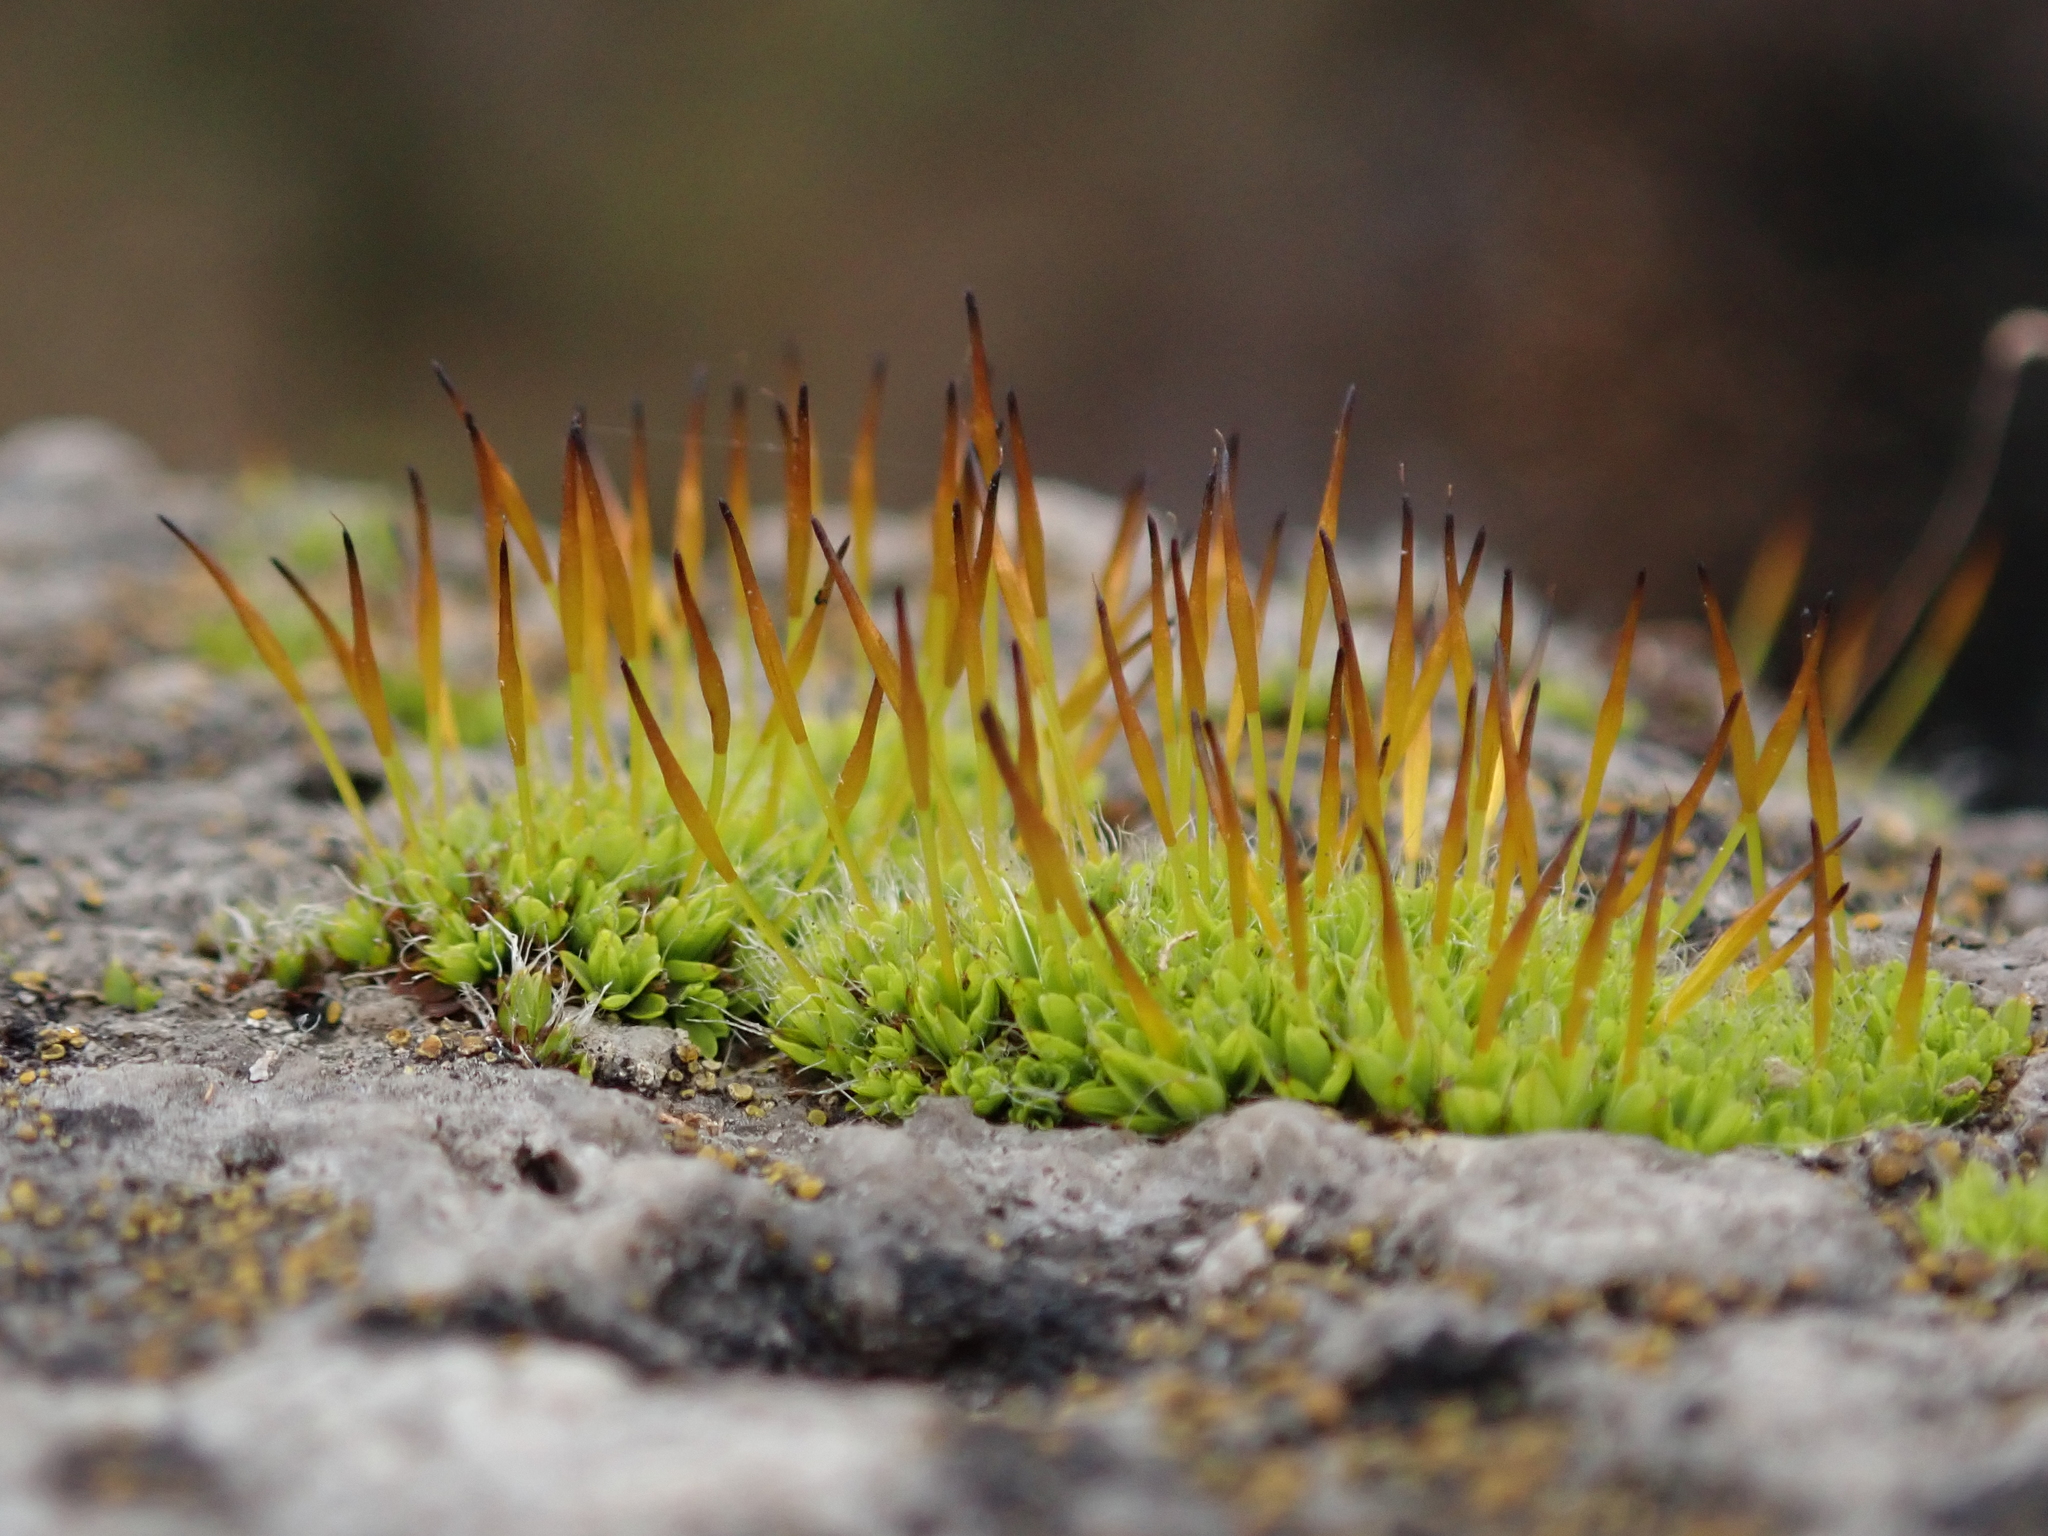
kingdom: Plantae
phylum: Bryophyta
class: Bryopsida
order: Pottiales
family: Pottiaceae
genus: Tortula
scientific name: Tortula muralis
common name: Wall screw-moss
